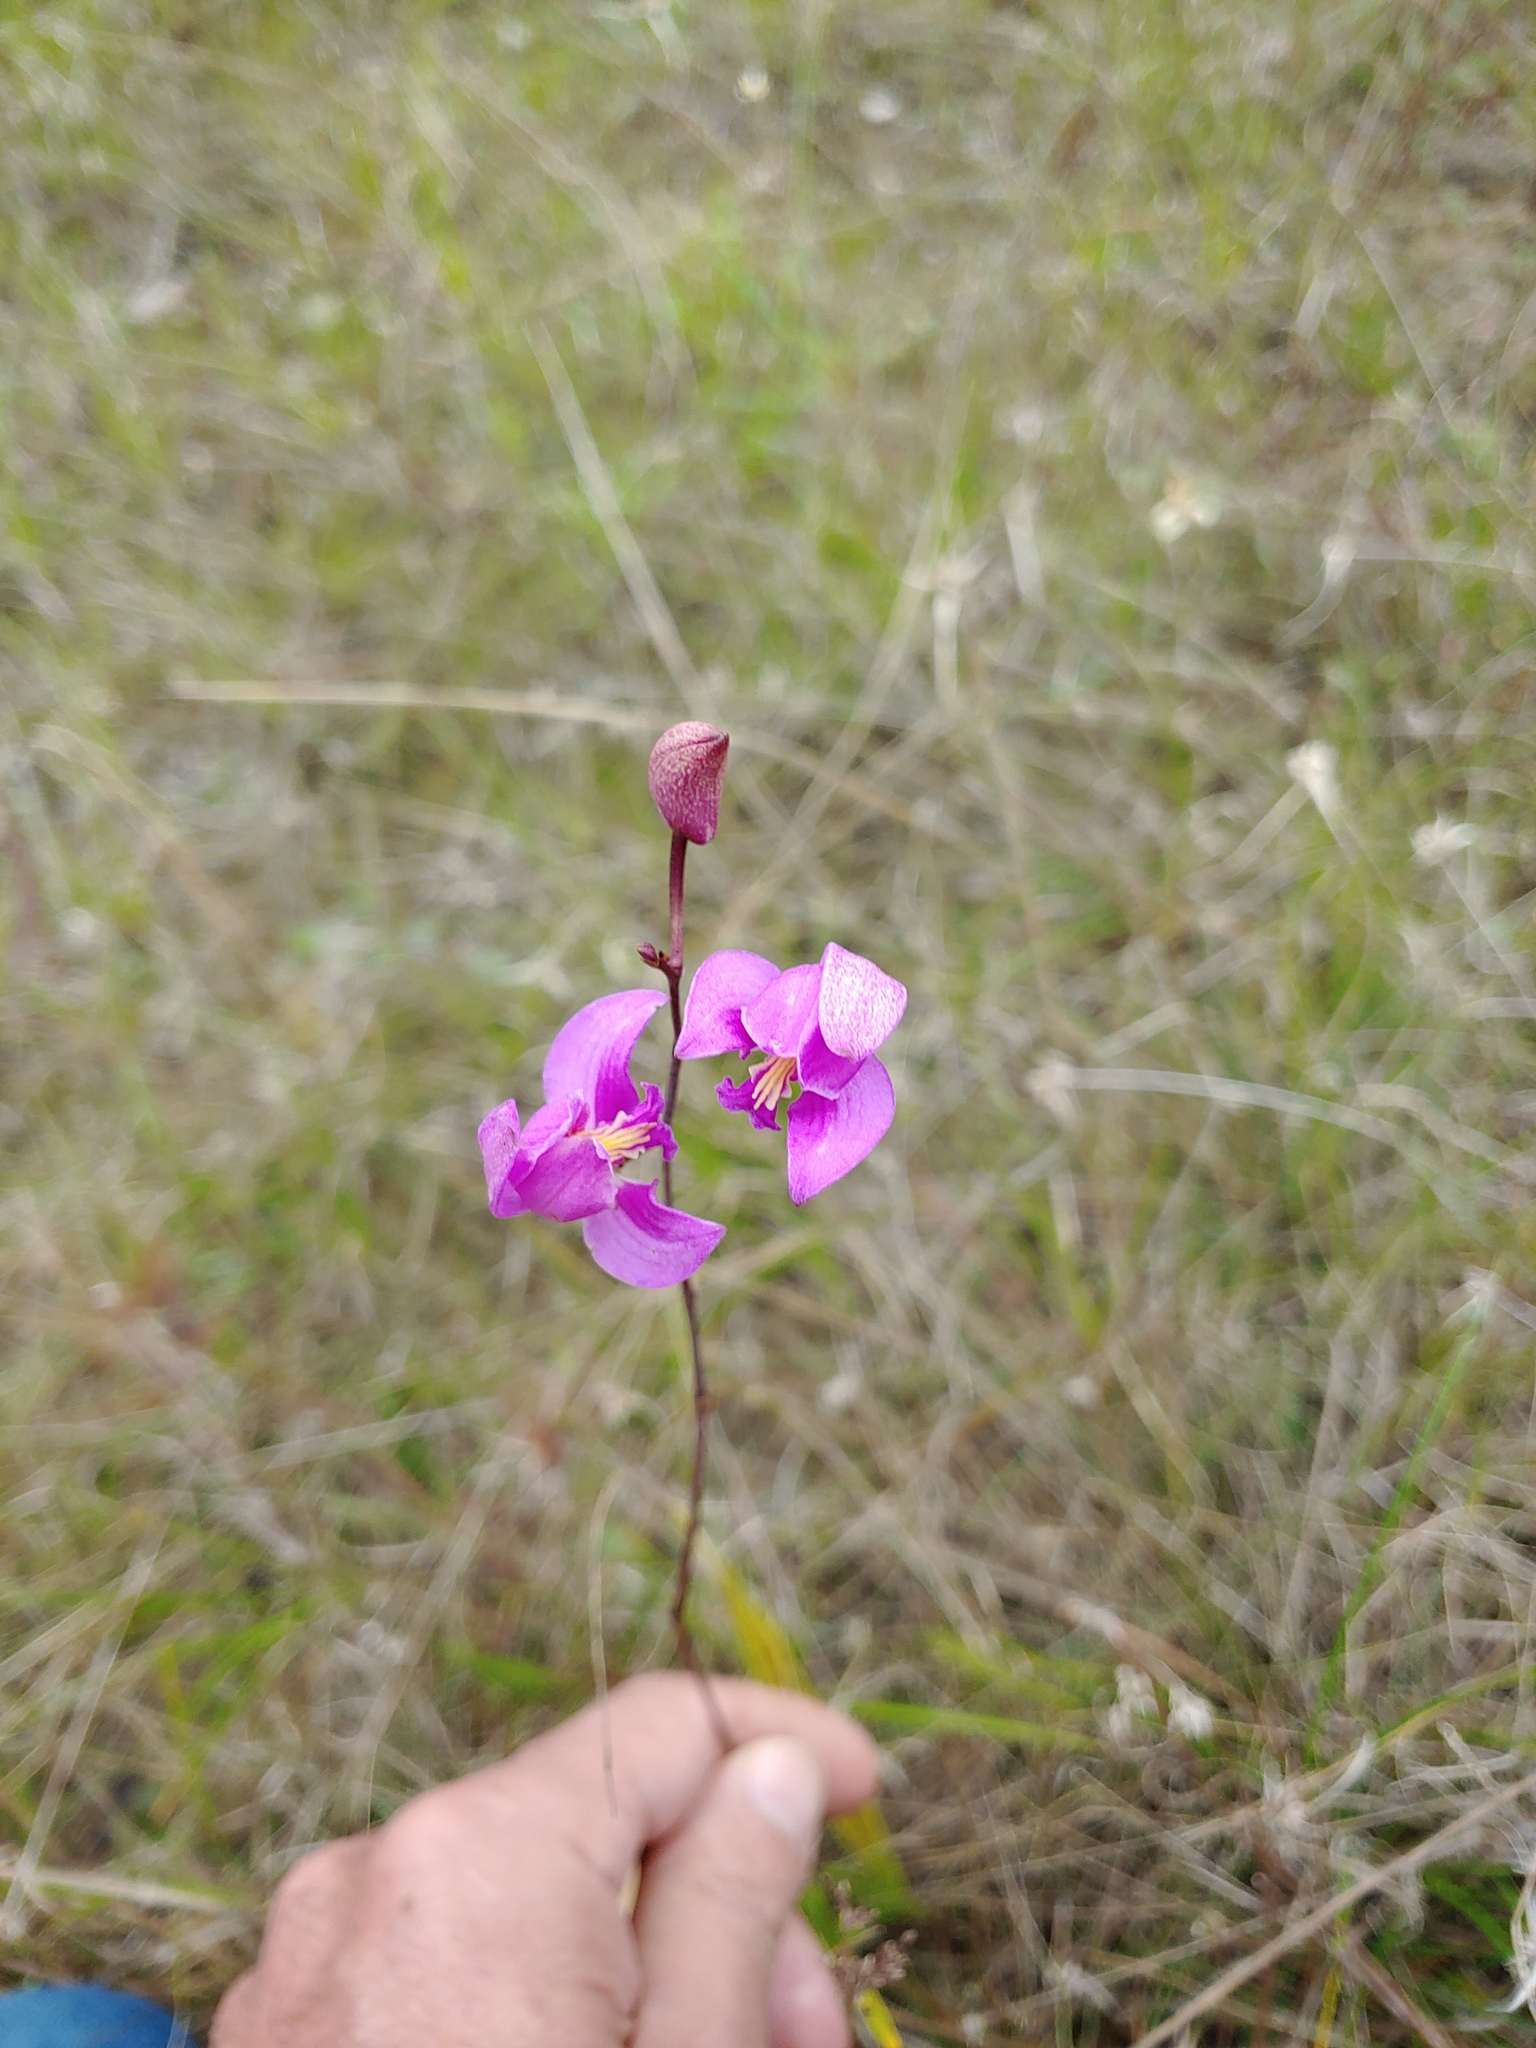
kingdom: Plantae
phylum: Tracheophyta
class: Liliopsida
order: Asparagales
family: Orchidaceae
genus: Bletia
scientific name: Bletia purpurea
